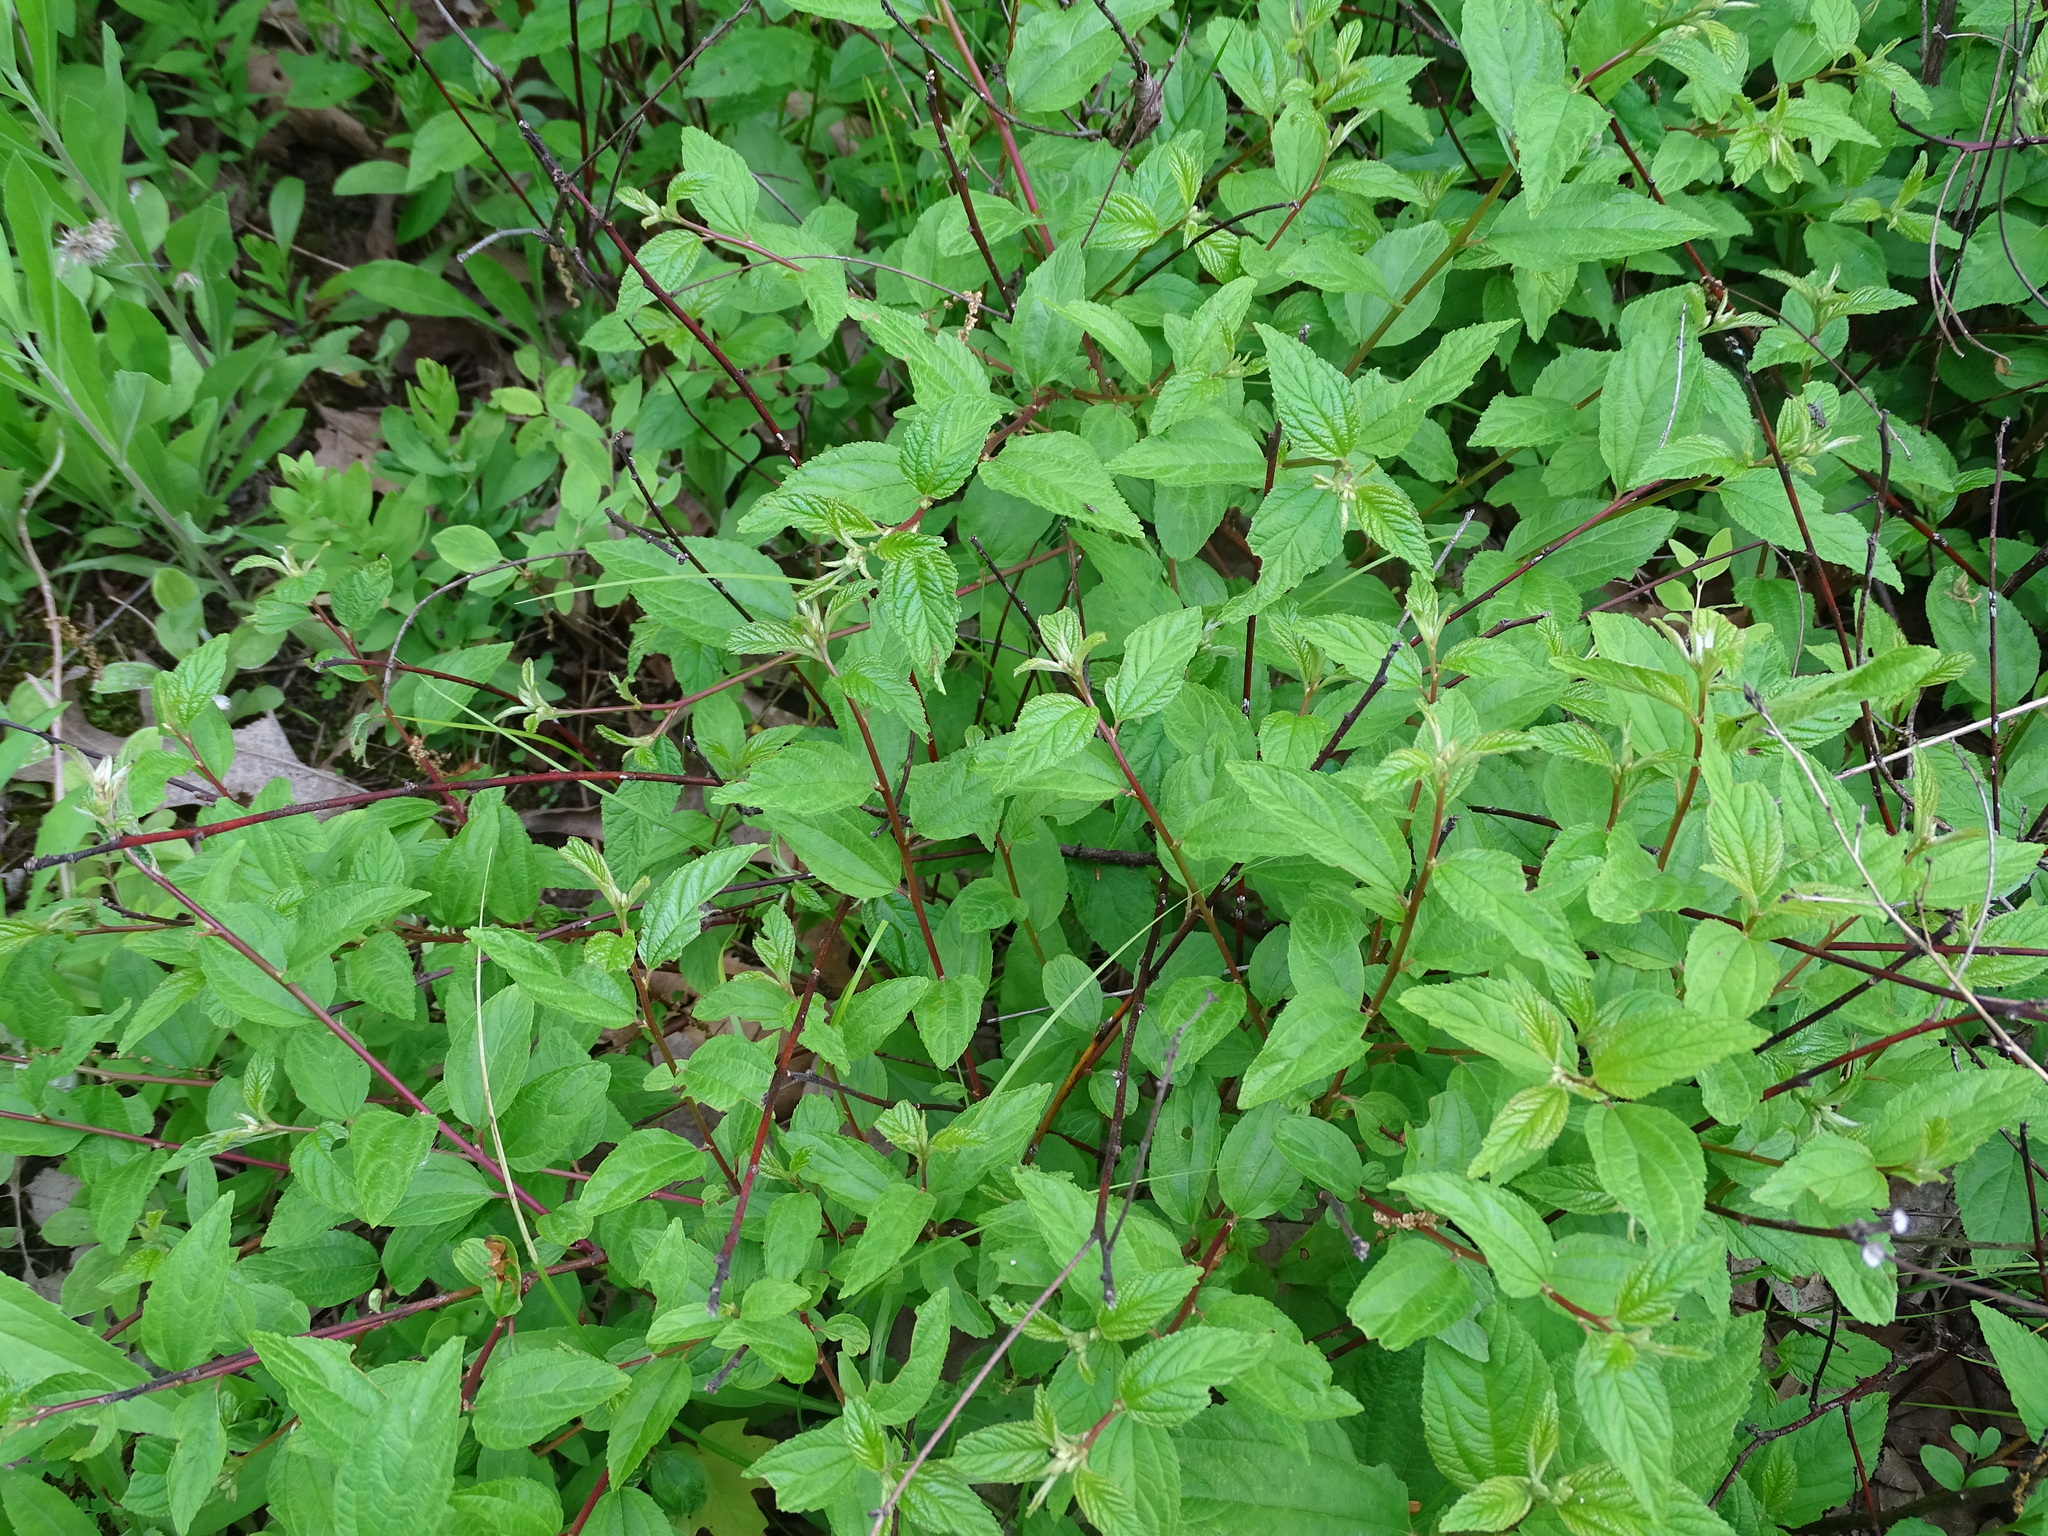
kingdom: Plantae
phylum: Tracheophyta
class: Magnoliopsida
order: Rosales
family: Rhamnaceae
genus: Ceanothus
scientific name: Ceanothus americanus
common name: Redroot
